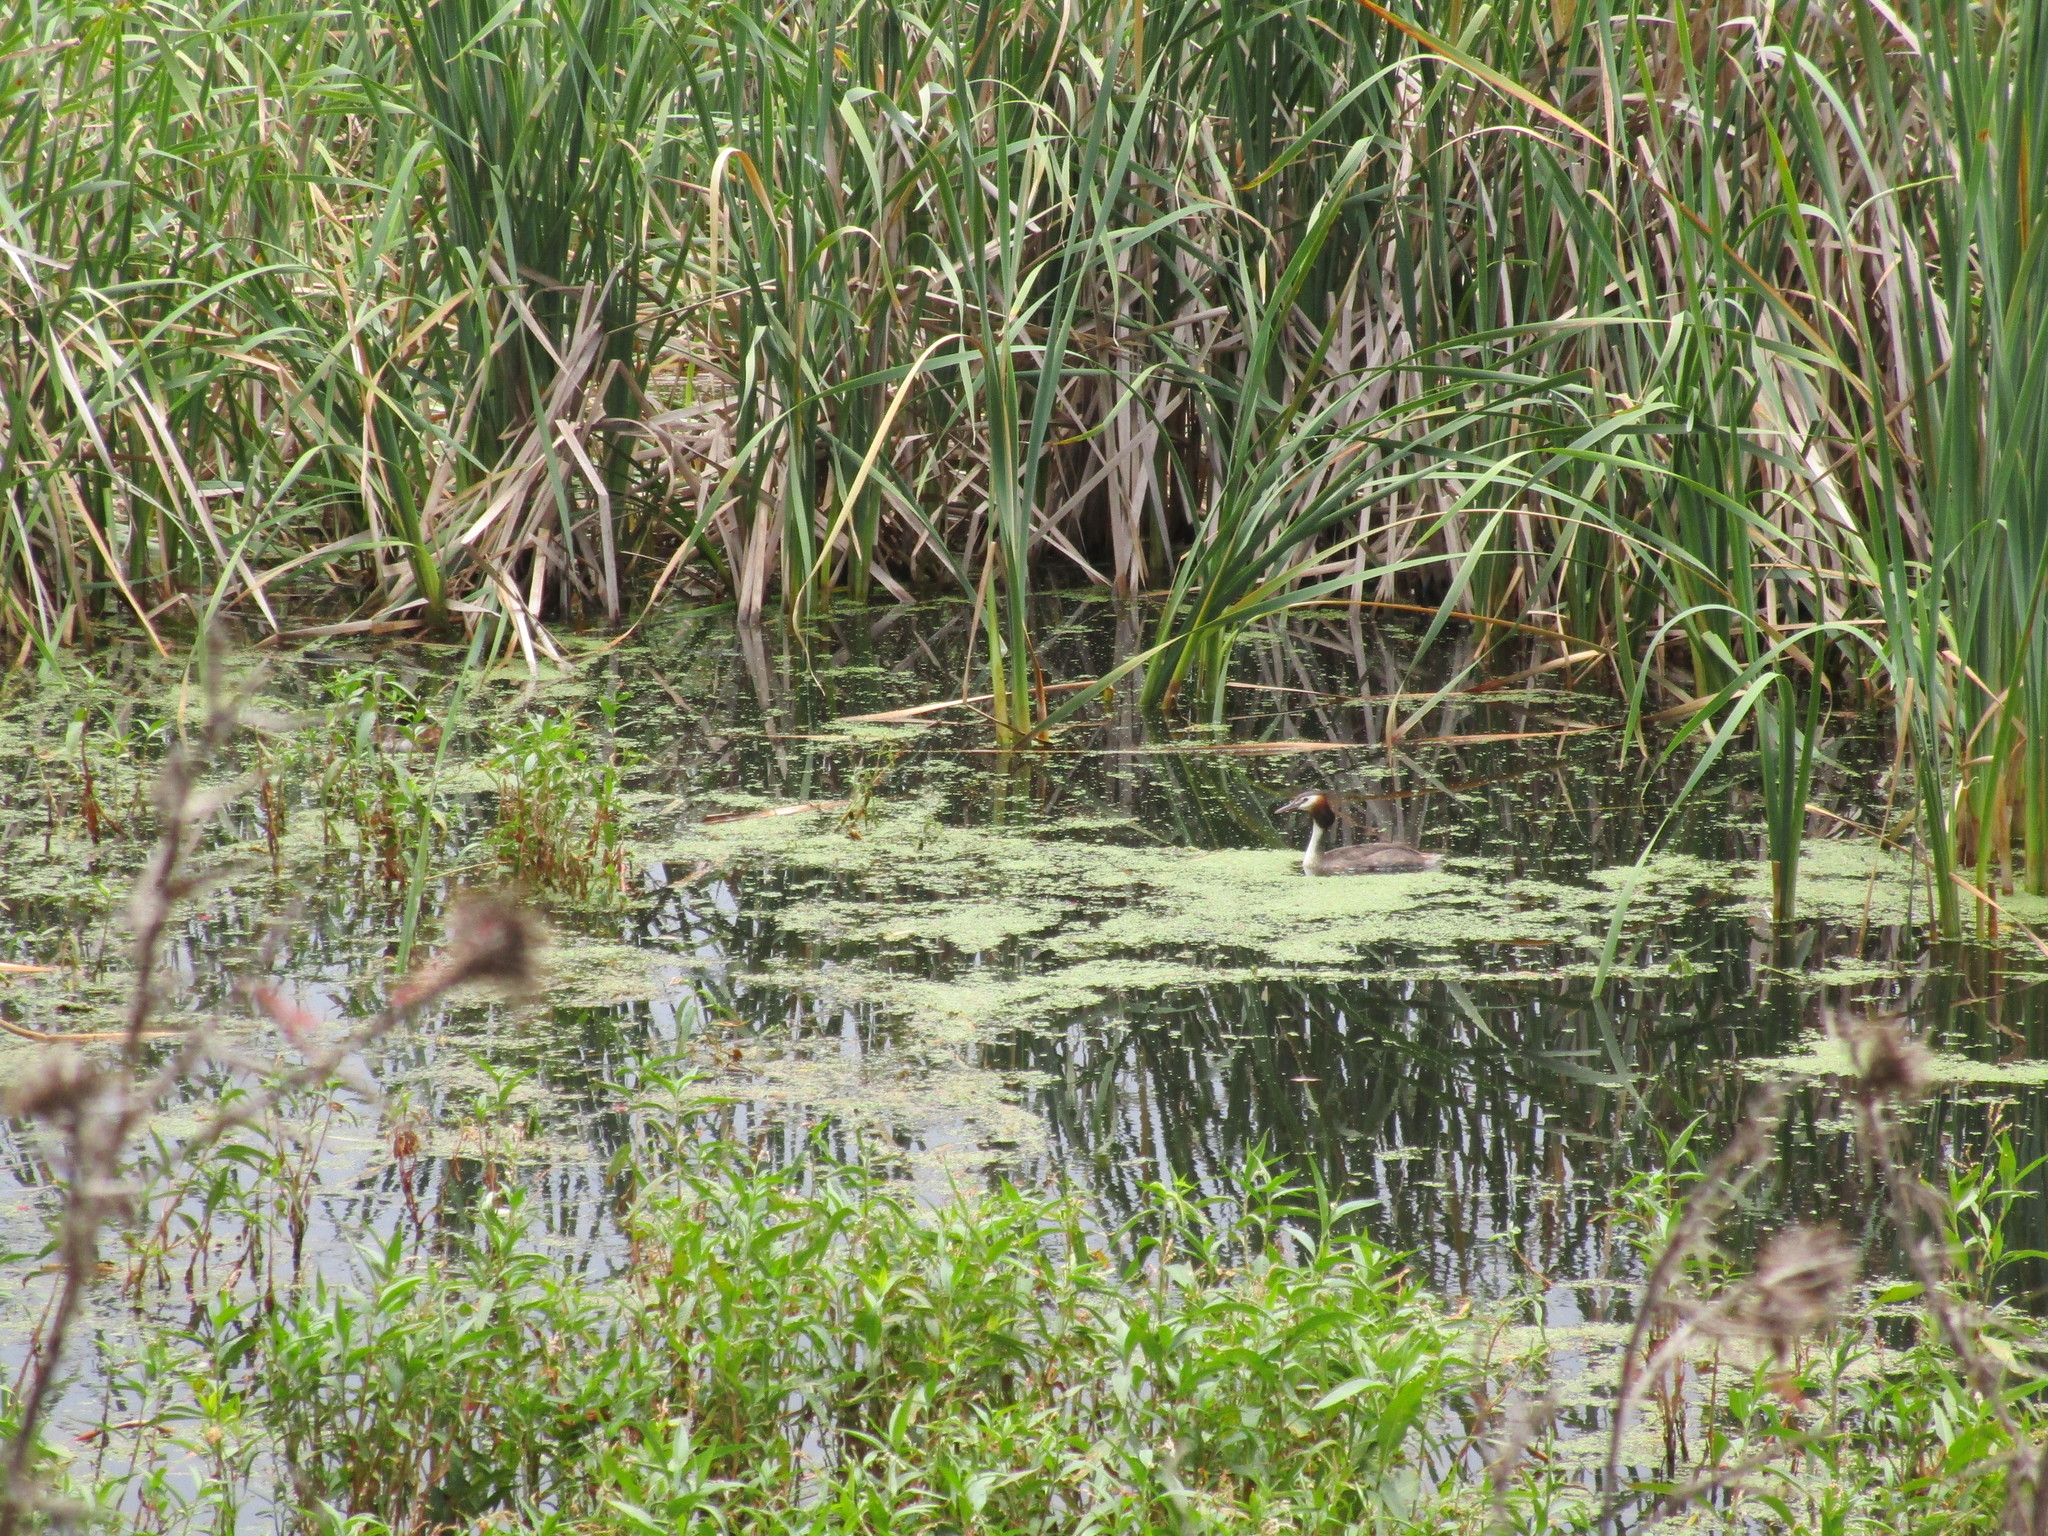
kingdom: Animalia
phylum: Chordata
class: Aves
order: Podicipediformes
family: Podicipedidae
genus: Podiceps
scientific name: Podiceps cristatus
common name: Great crested grebe
